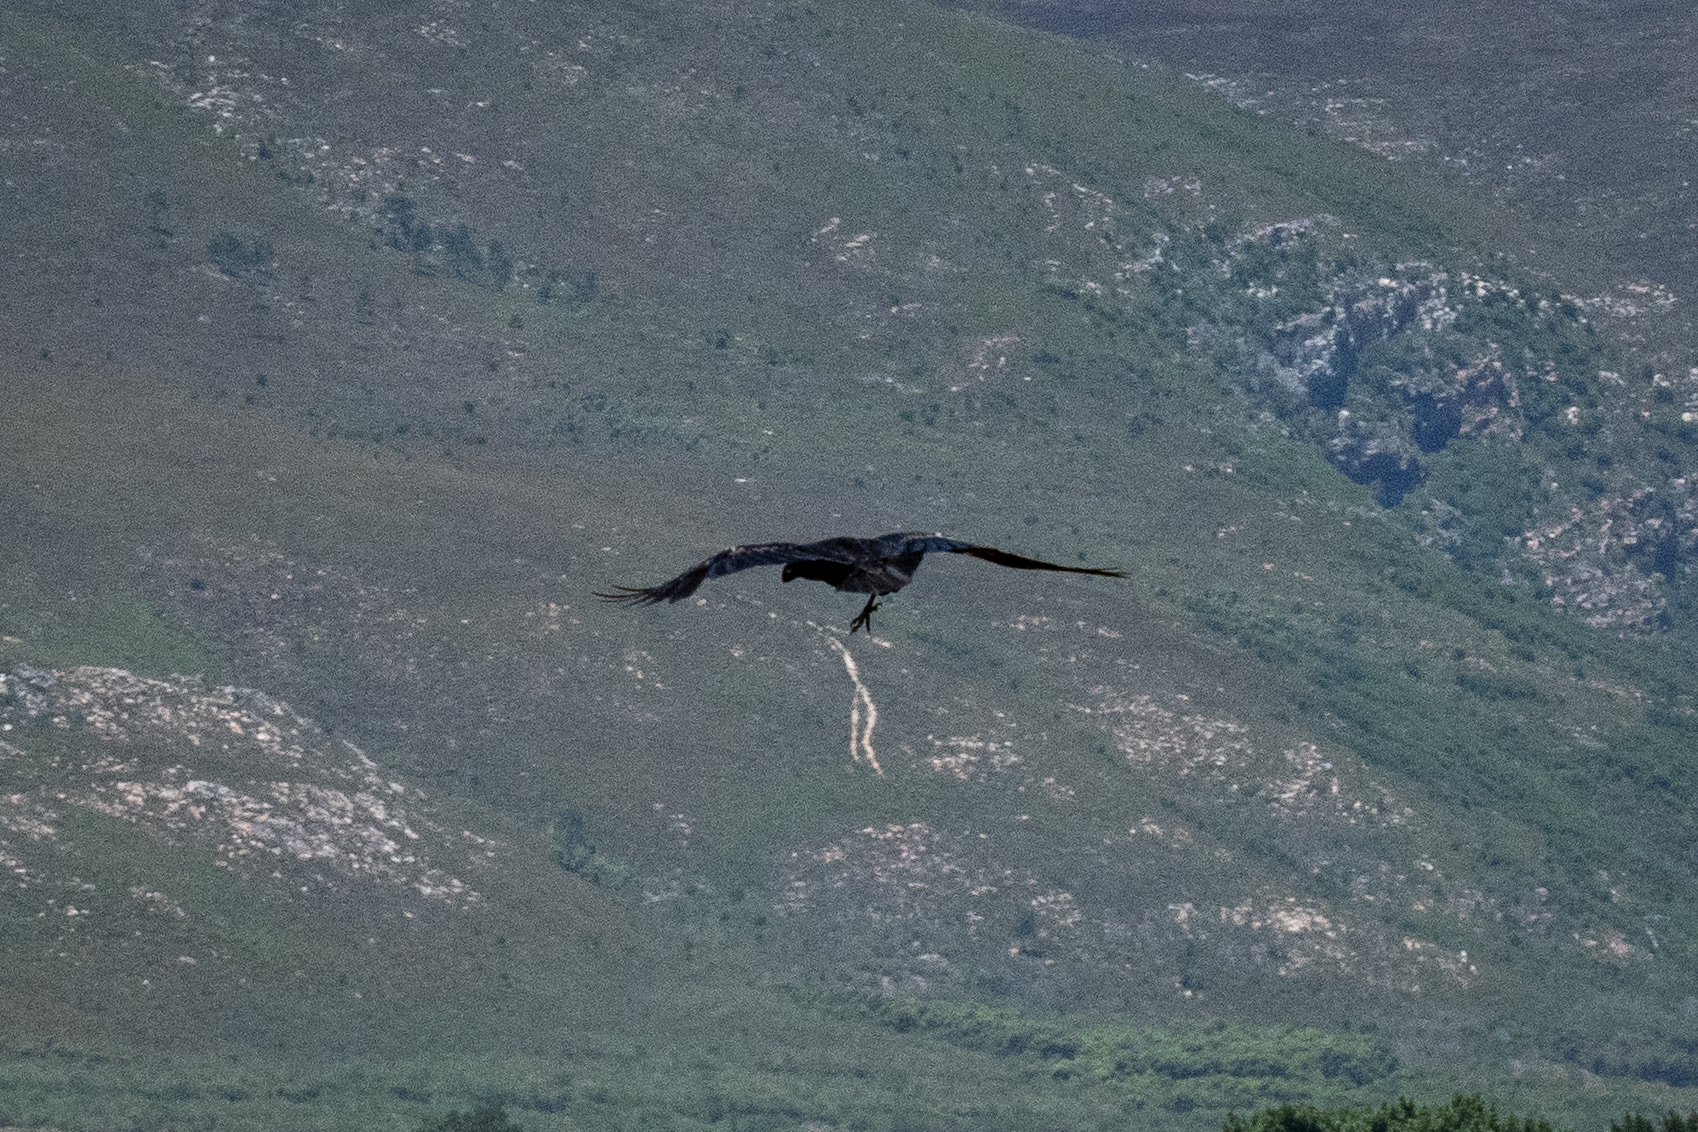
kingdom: Animalia
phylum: Chordata
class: Aves
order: Passeriformes
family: Corvidae
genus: Corvus
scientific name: Corvus albicollis
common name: White-necked raven
